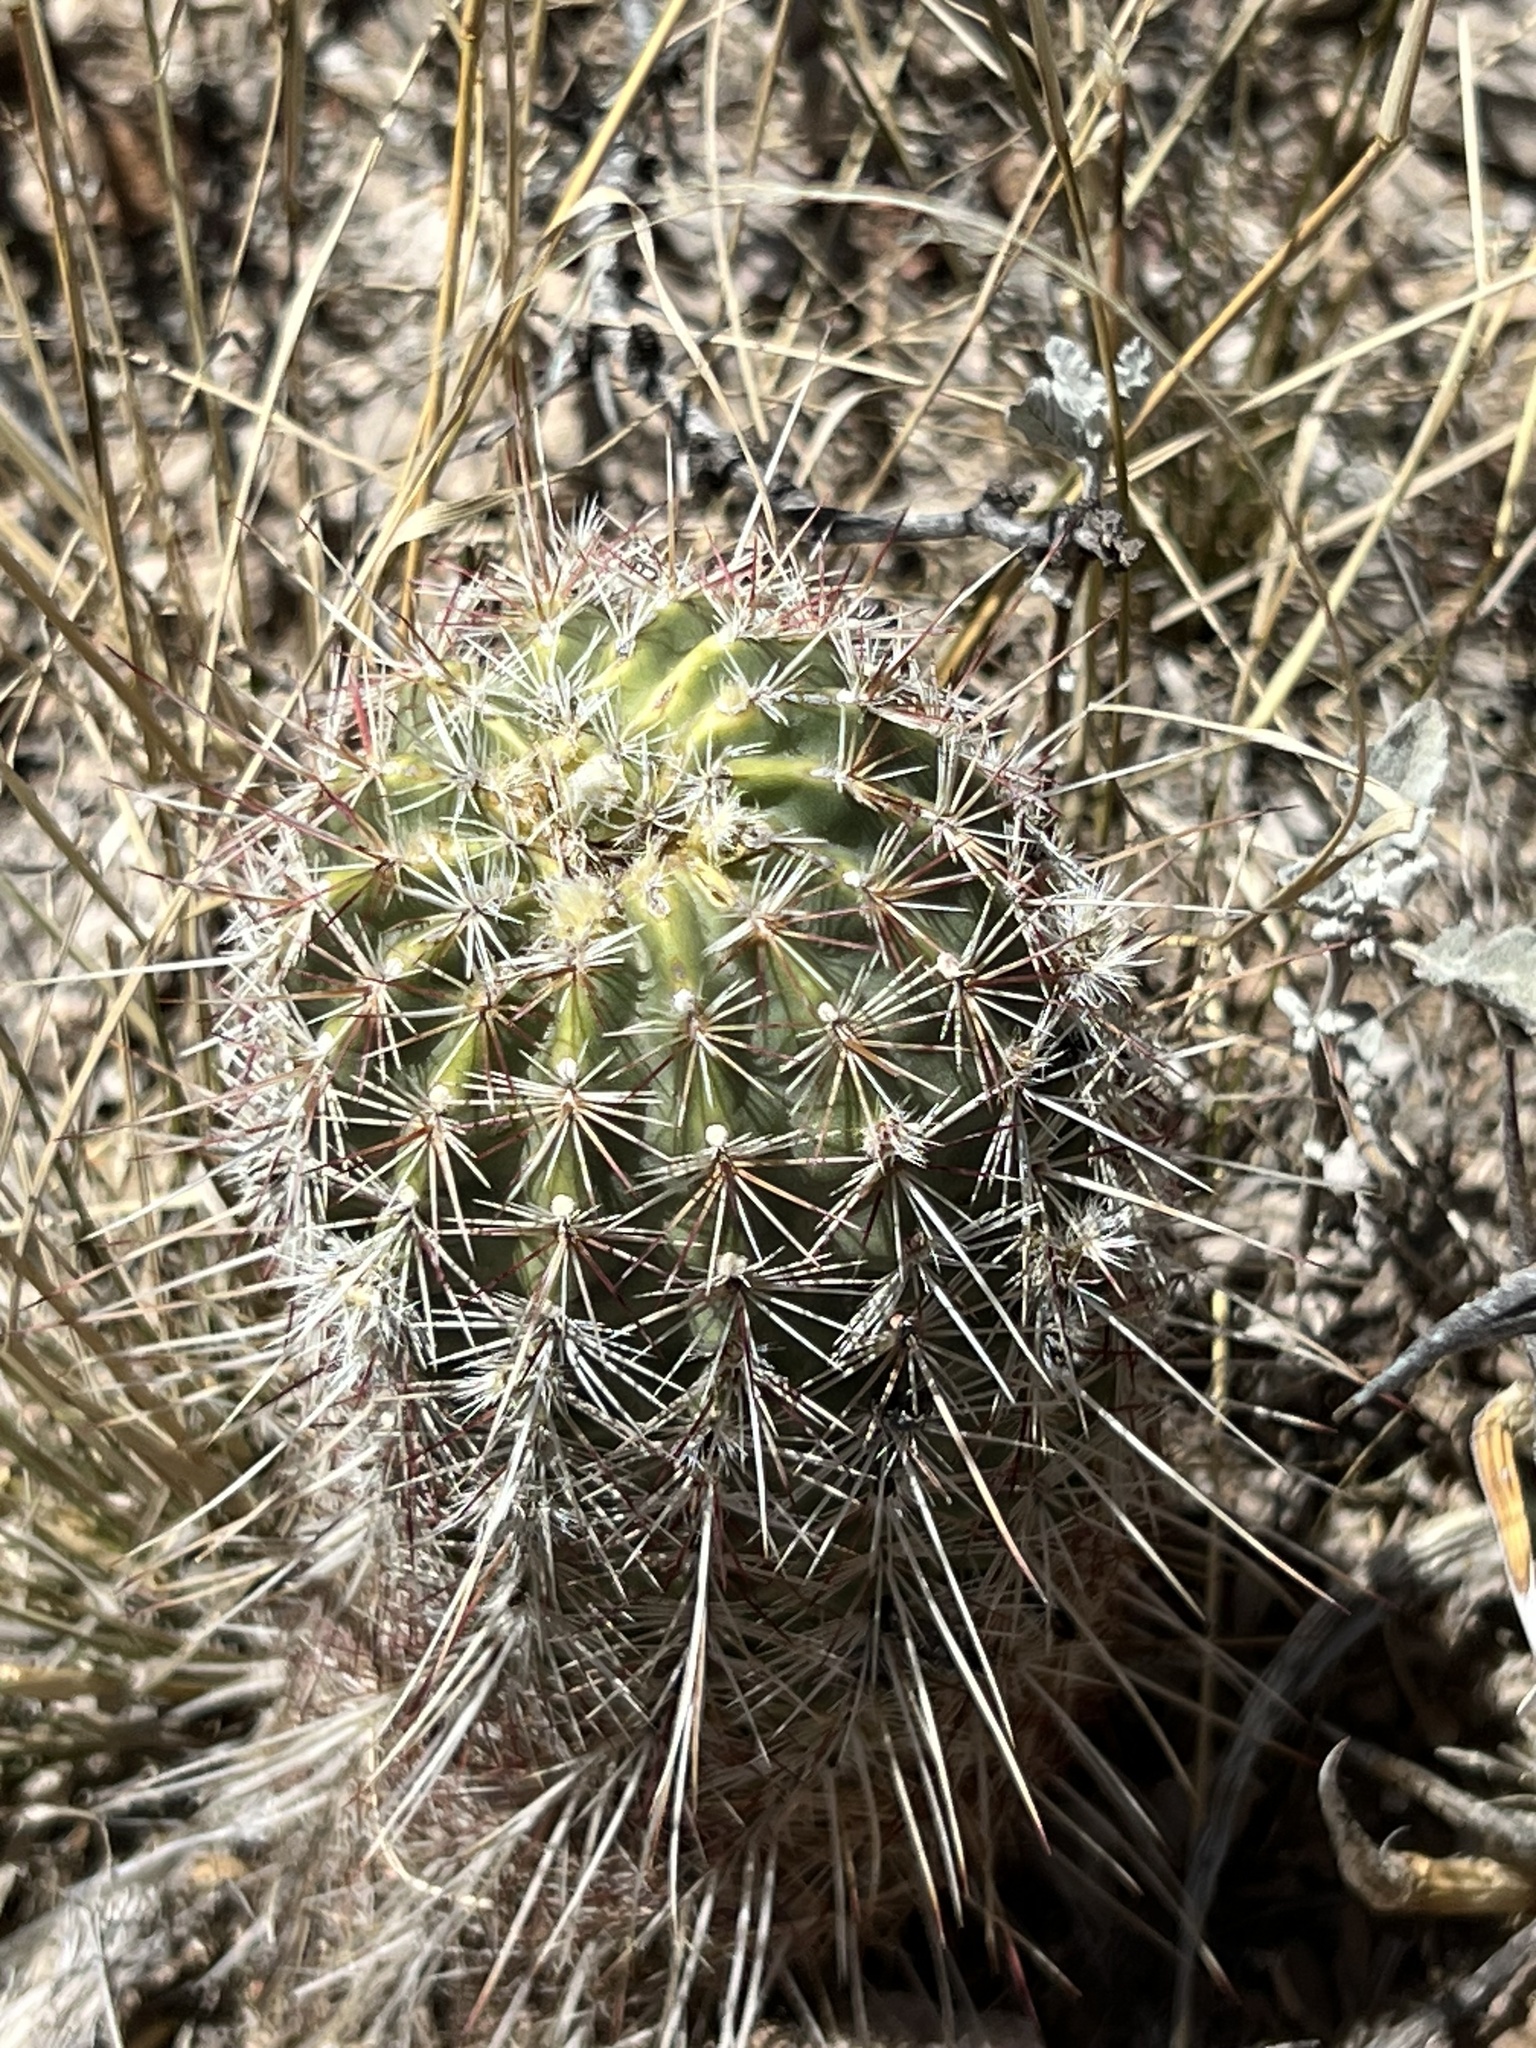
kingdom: Plantae
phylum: Tracheophyta
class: Magnoliopsida
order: Caryophyllales
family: Cactaceae
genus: Echinocereus
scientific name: Echinocereus viridiflorus
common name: Nylon hedgehog cactus
